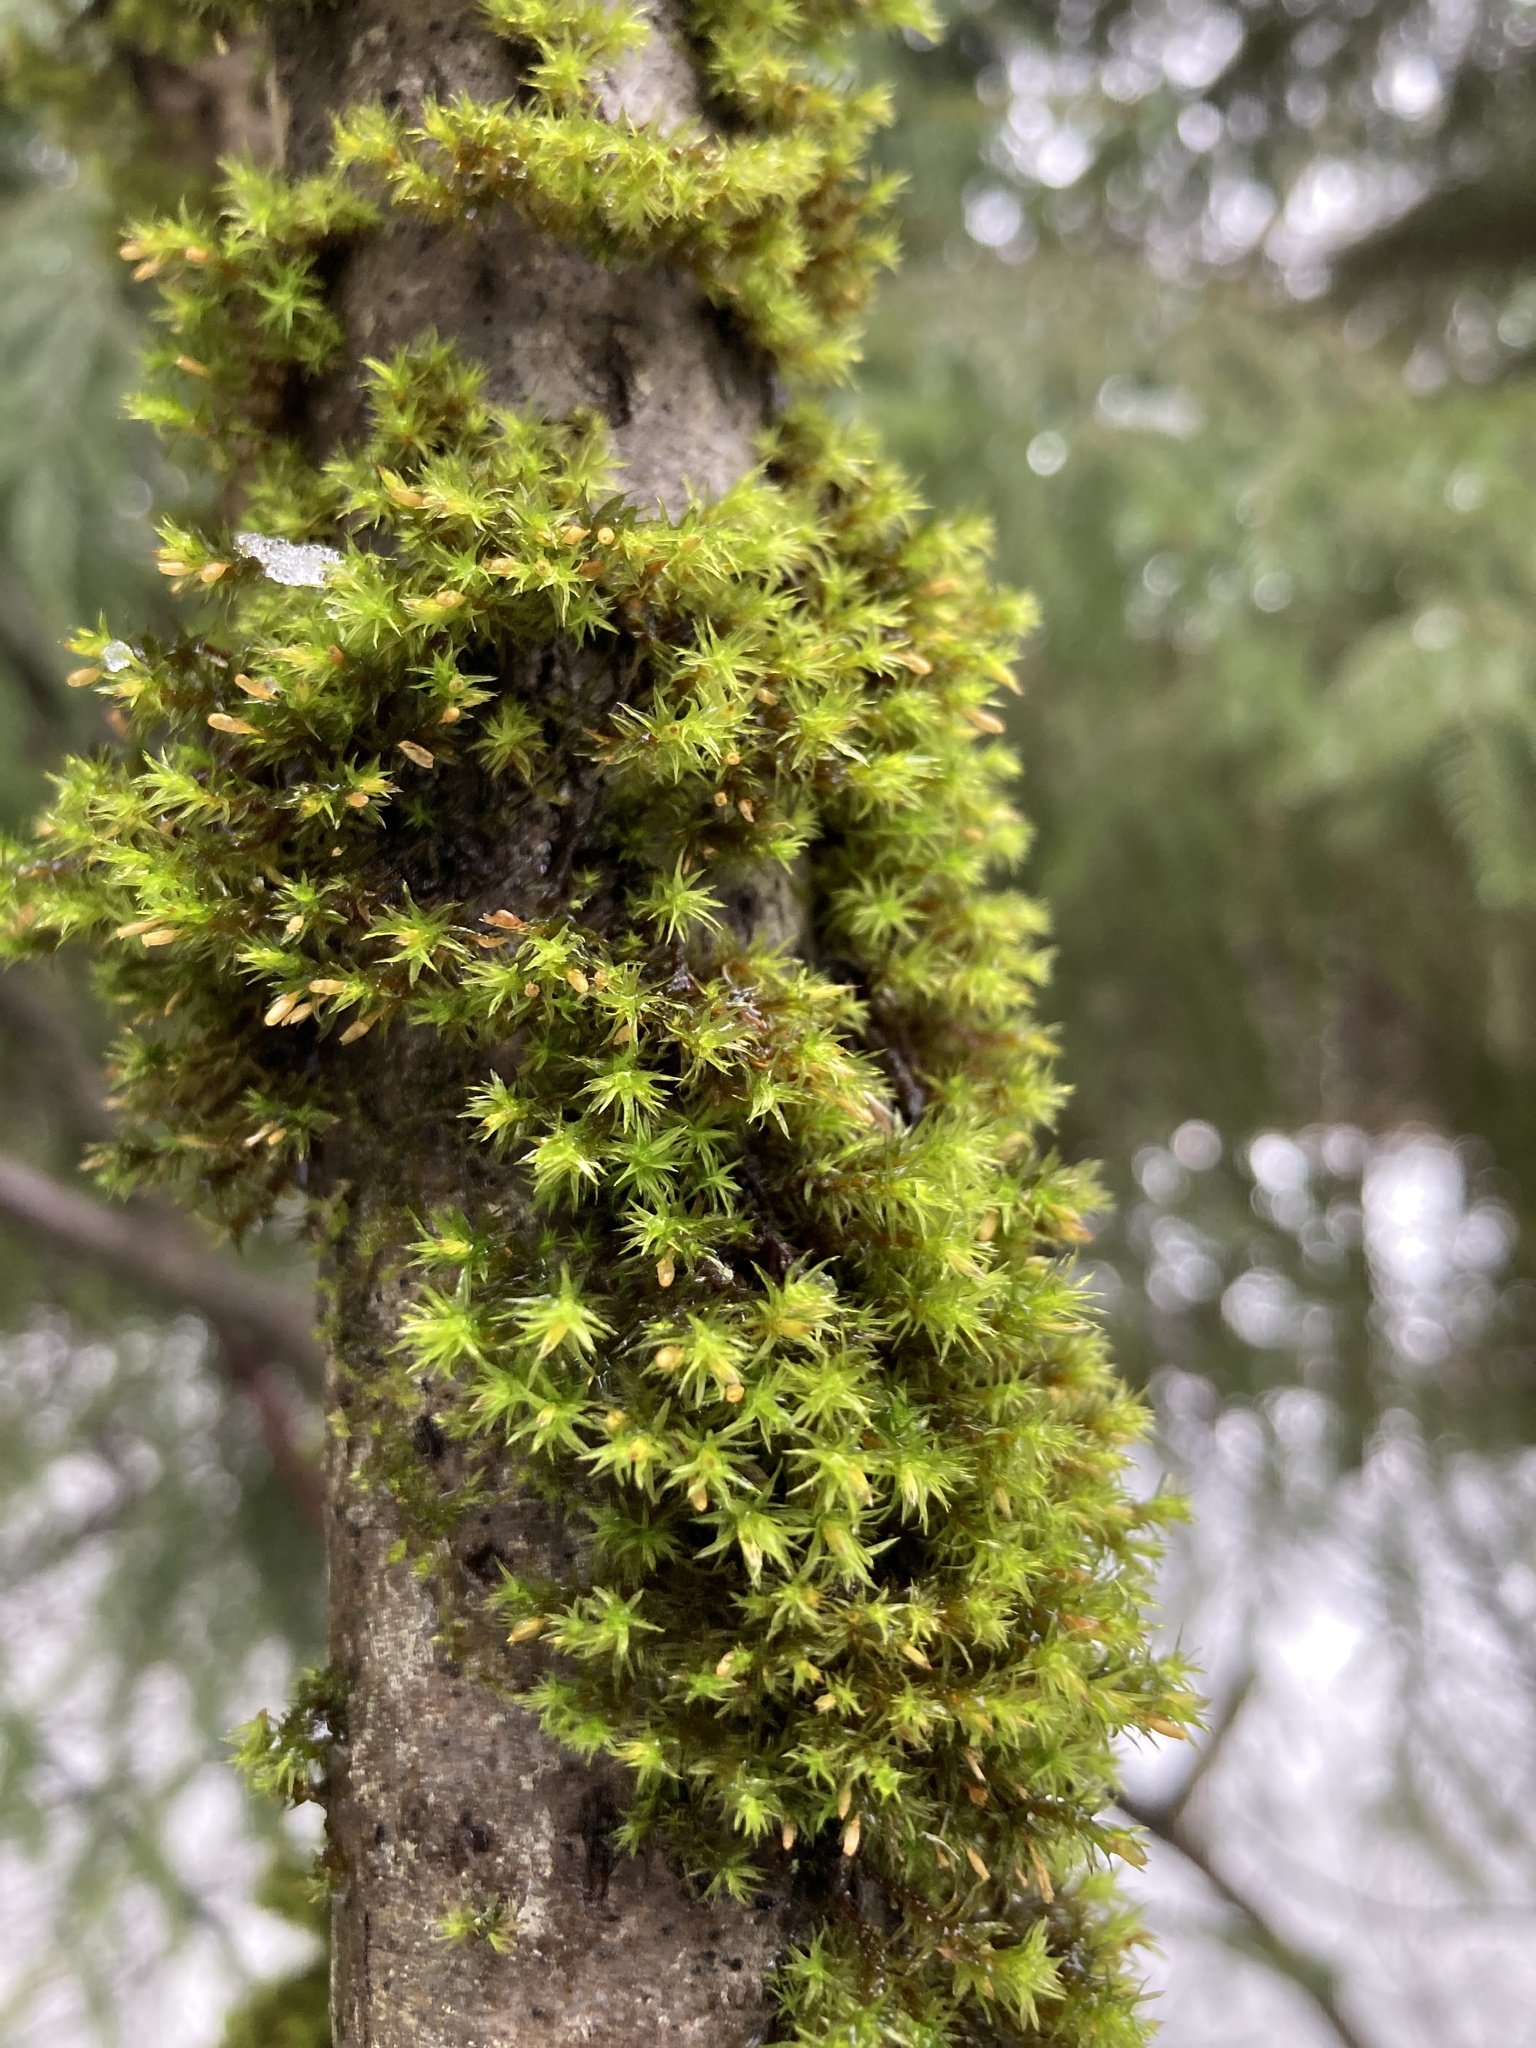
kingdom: Plantae
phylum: Bryophyta
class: Bryopsida
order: Orthotrichales
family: Orthotrichaceae
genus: Lewinskya
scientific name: Lewinskya speciosa
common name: Showy bristle moss
